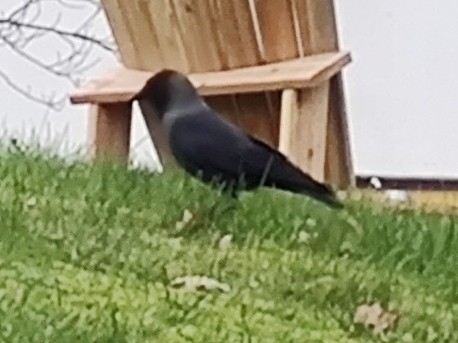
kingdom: Animalia
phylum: Chordata
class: Aves
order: Passeriformes
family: Corvidae
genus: Coloeus
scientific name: Coloeus monedula
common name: Western jackdaw
